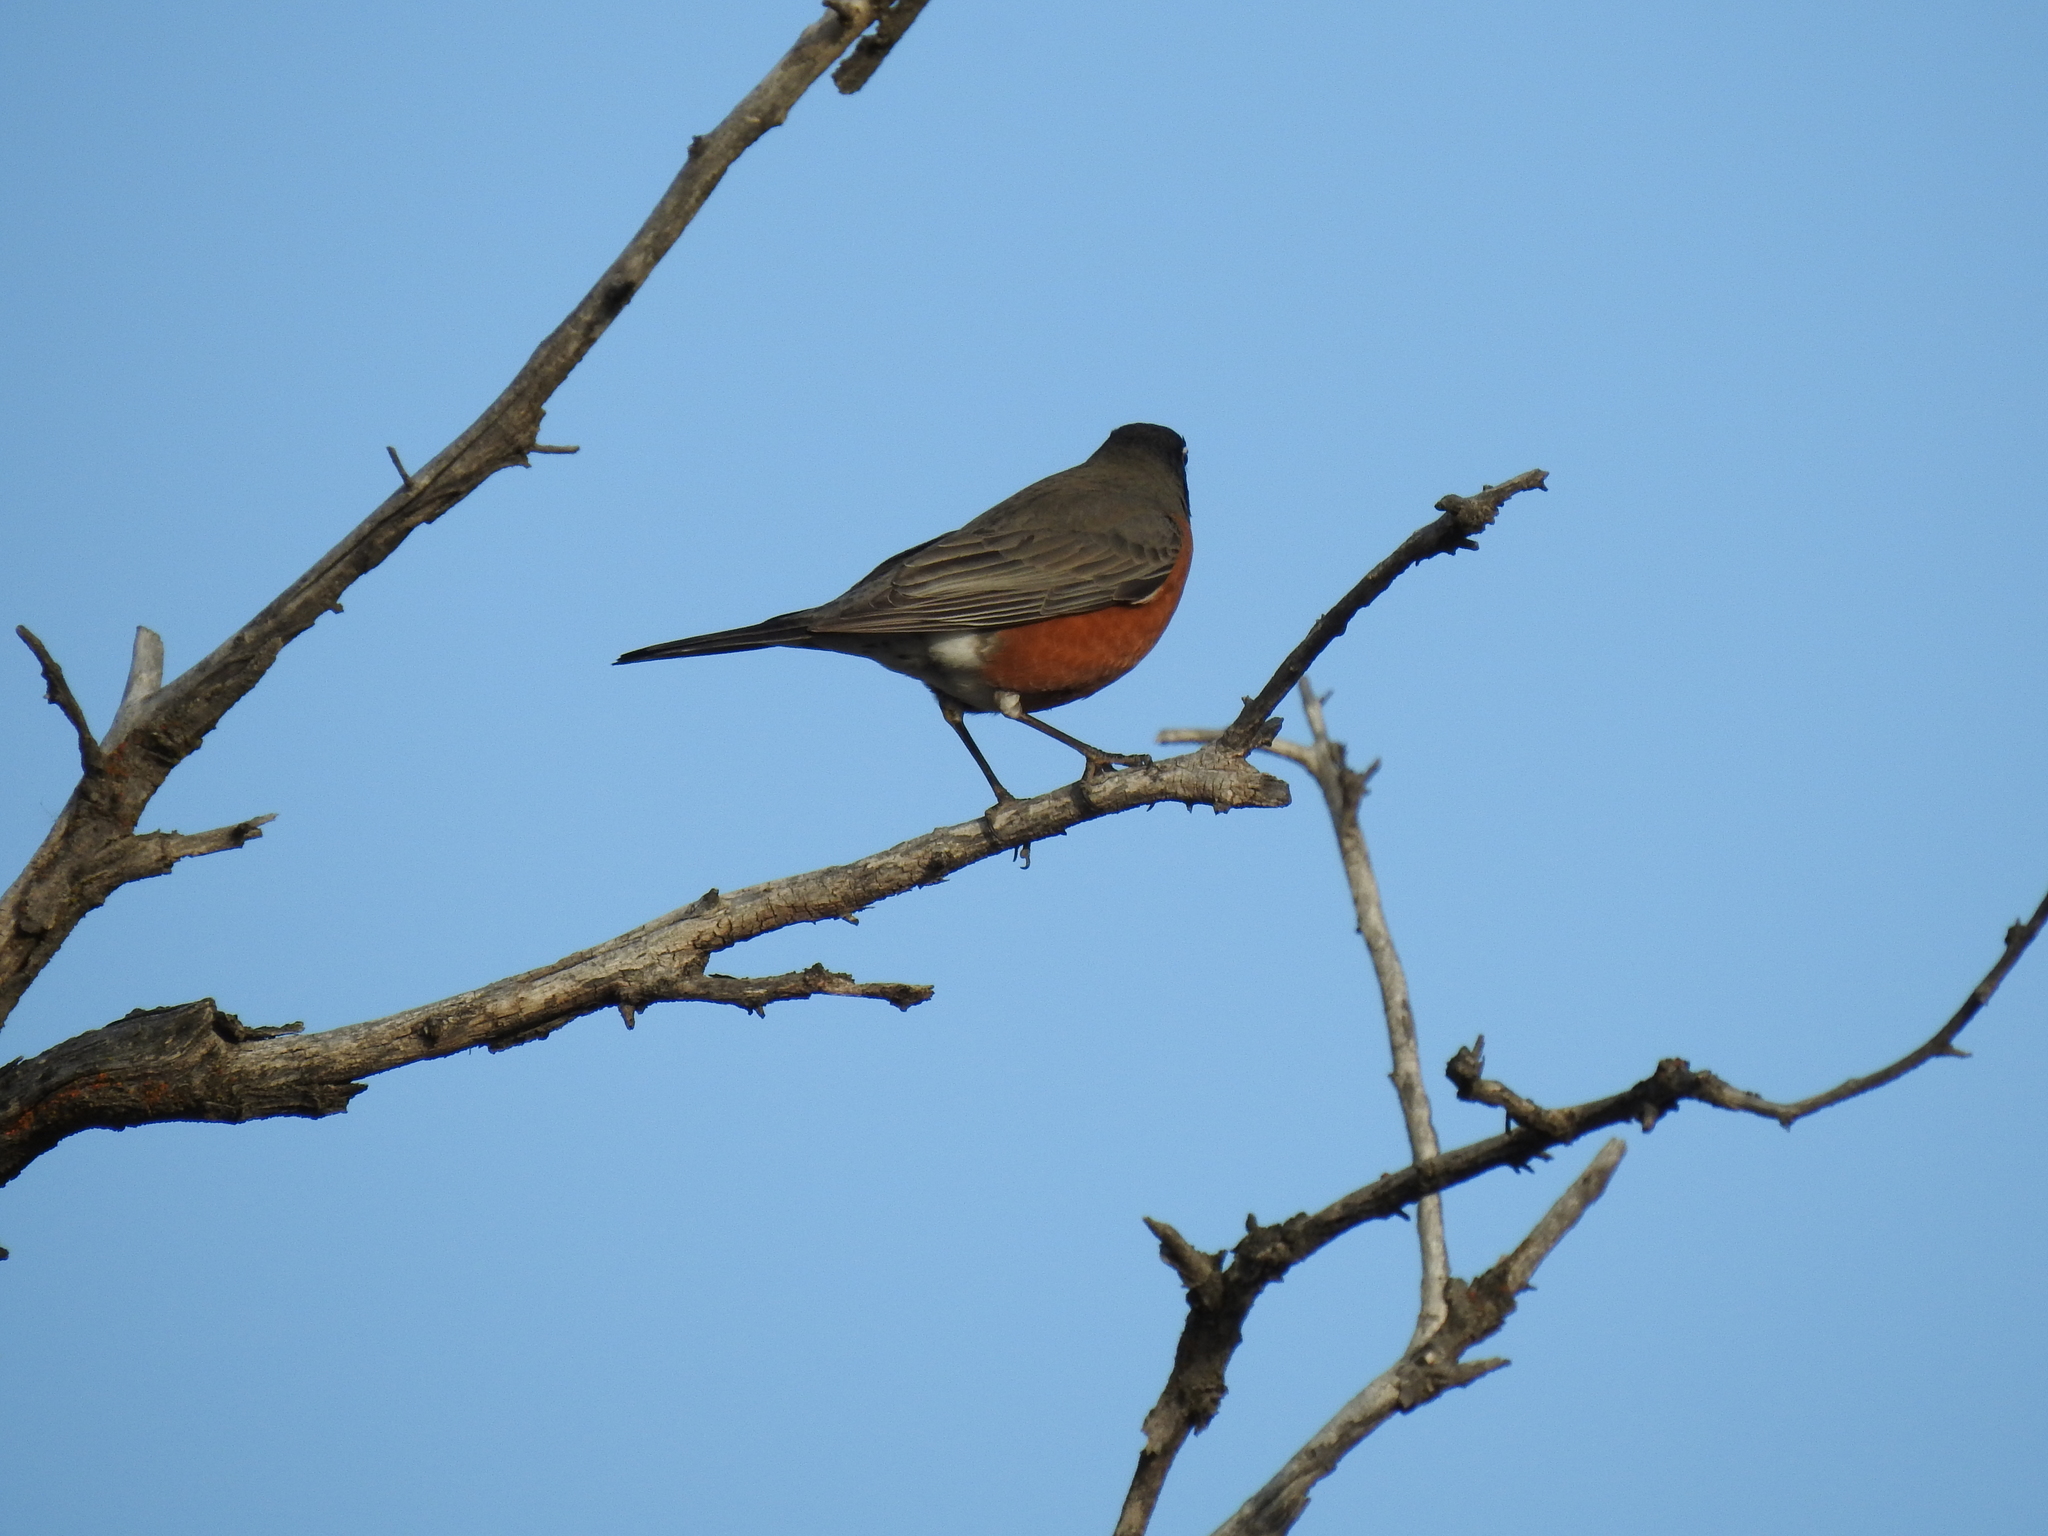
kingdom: Animalia
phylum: Chordata
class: Aves
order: Passeriformes
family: Turdidae
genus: Turdus
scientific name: Turdus migratorius
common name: American robin
